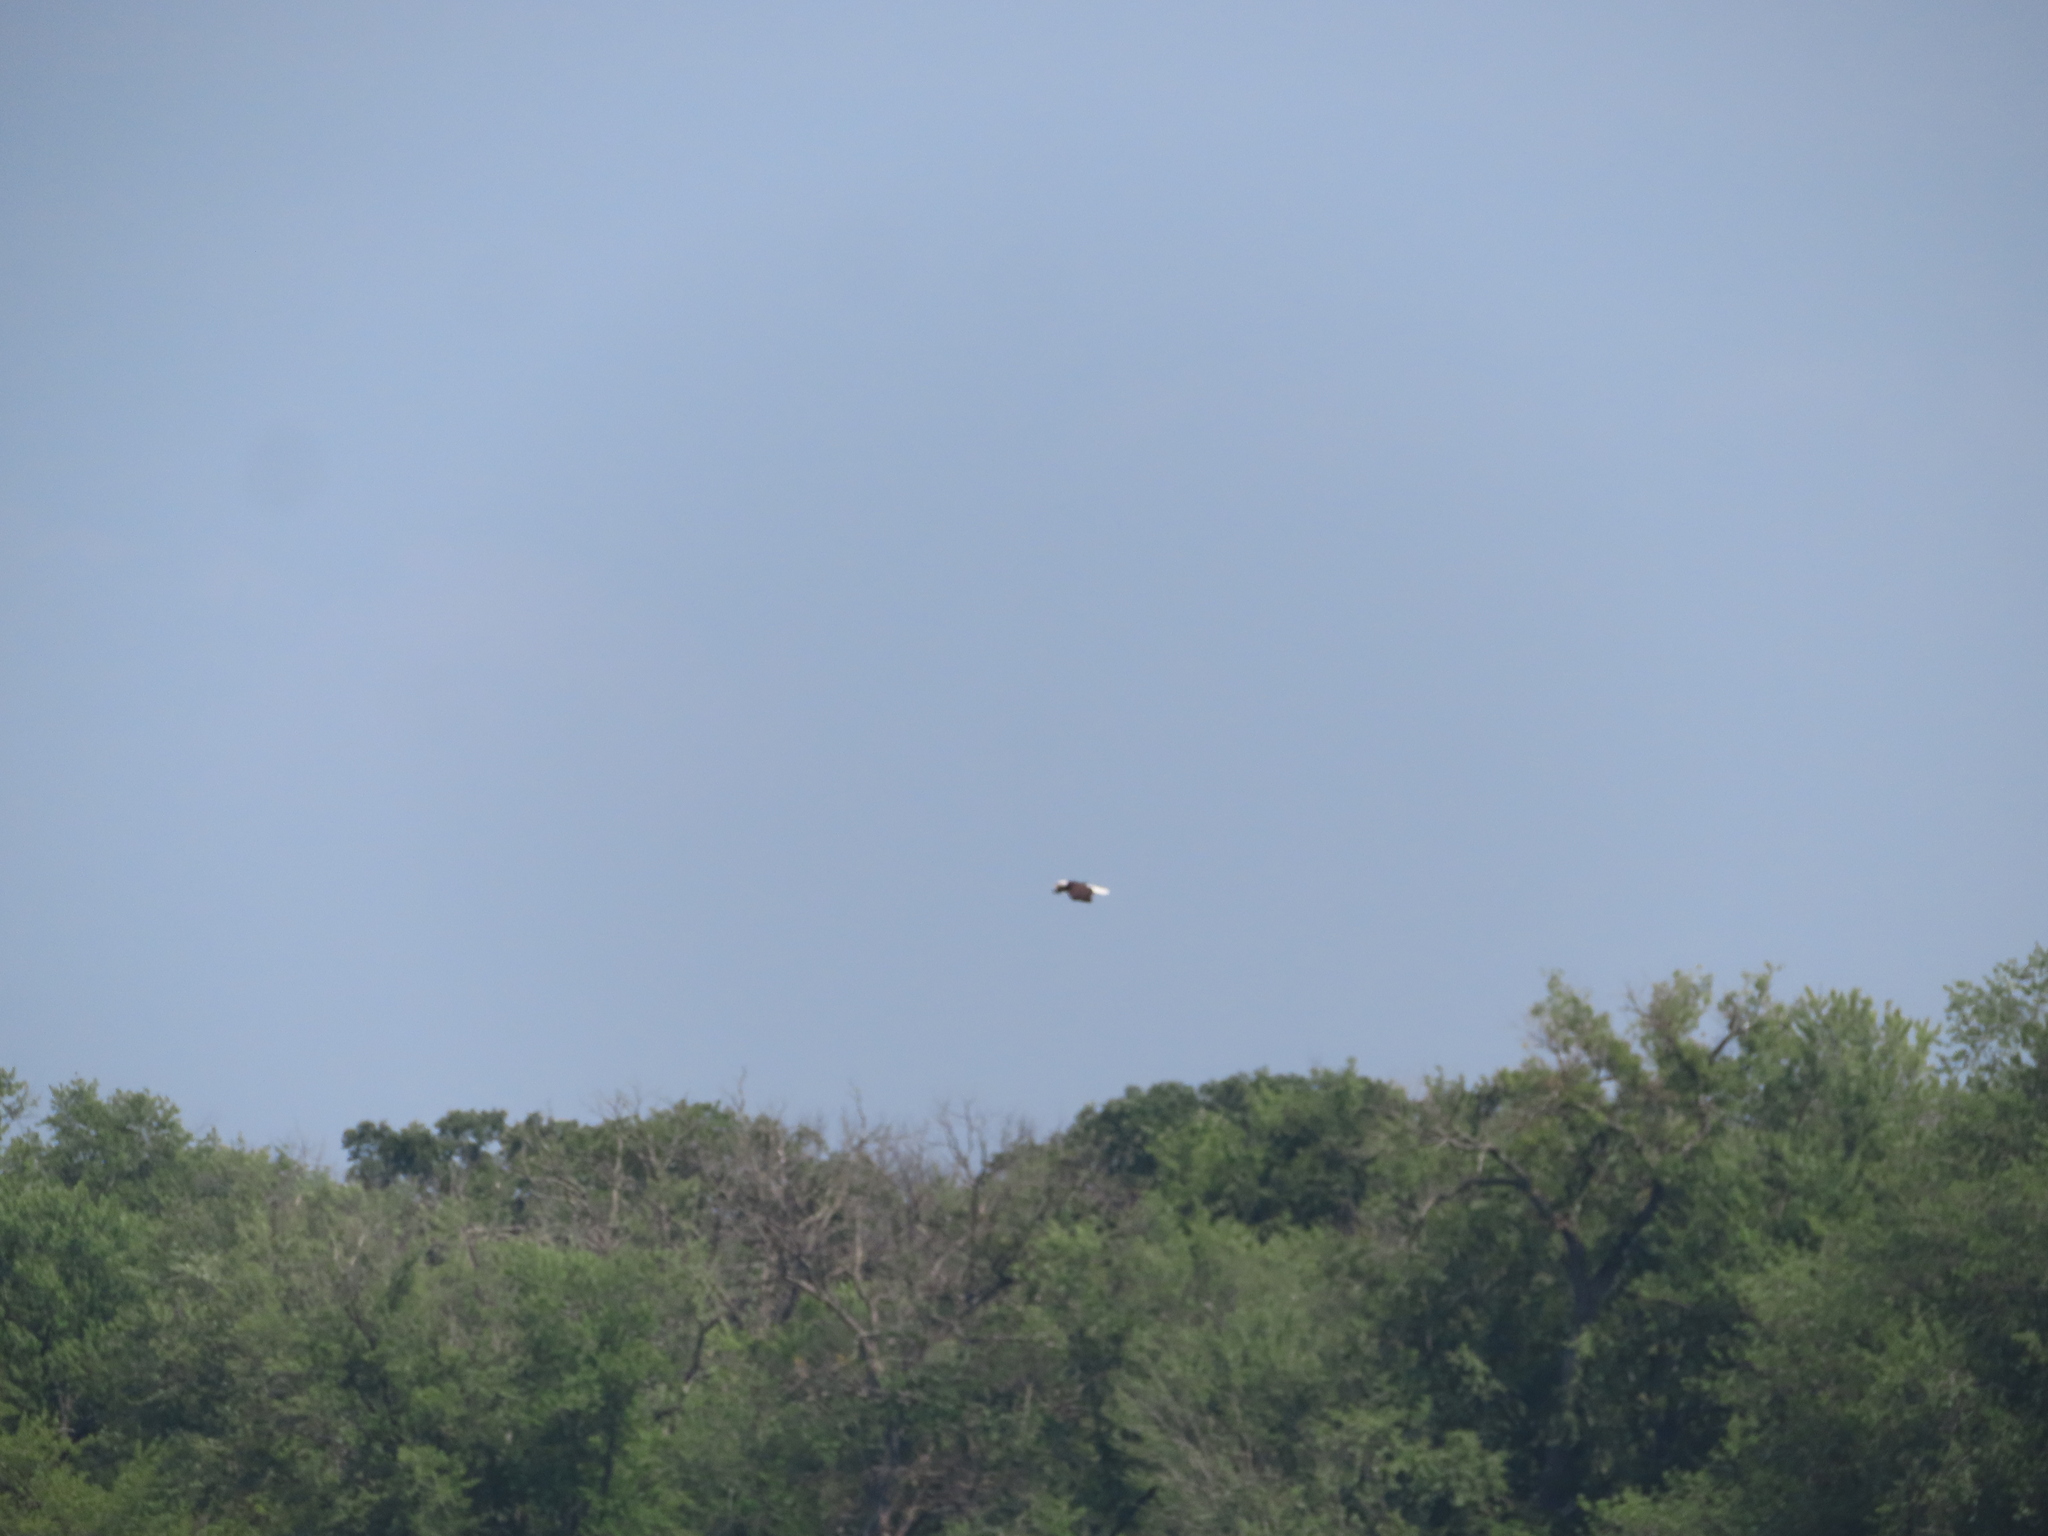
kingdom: Animalia
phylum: Chordata
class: Aves
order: Accipitriformes
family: Accipitridae
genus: Haliaeetus
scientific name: Haliaeetus leucocephalus
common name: Bald eagle
